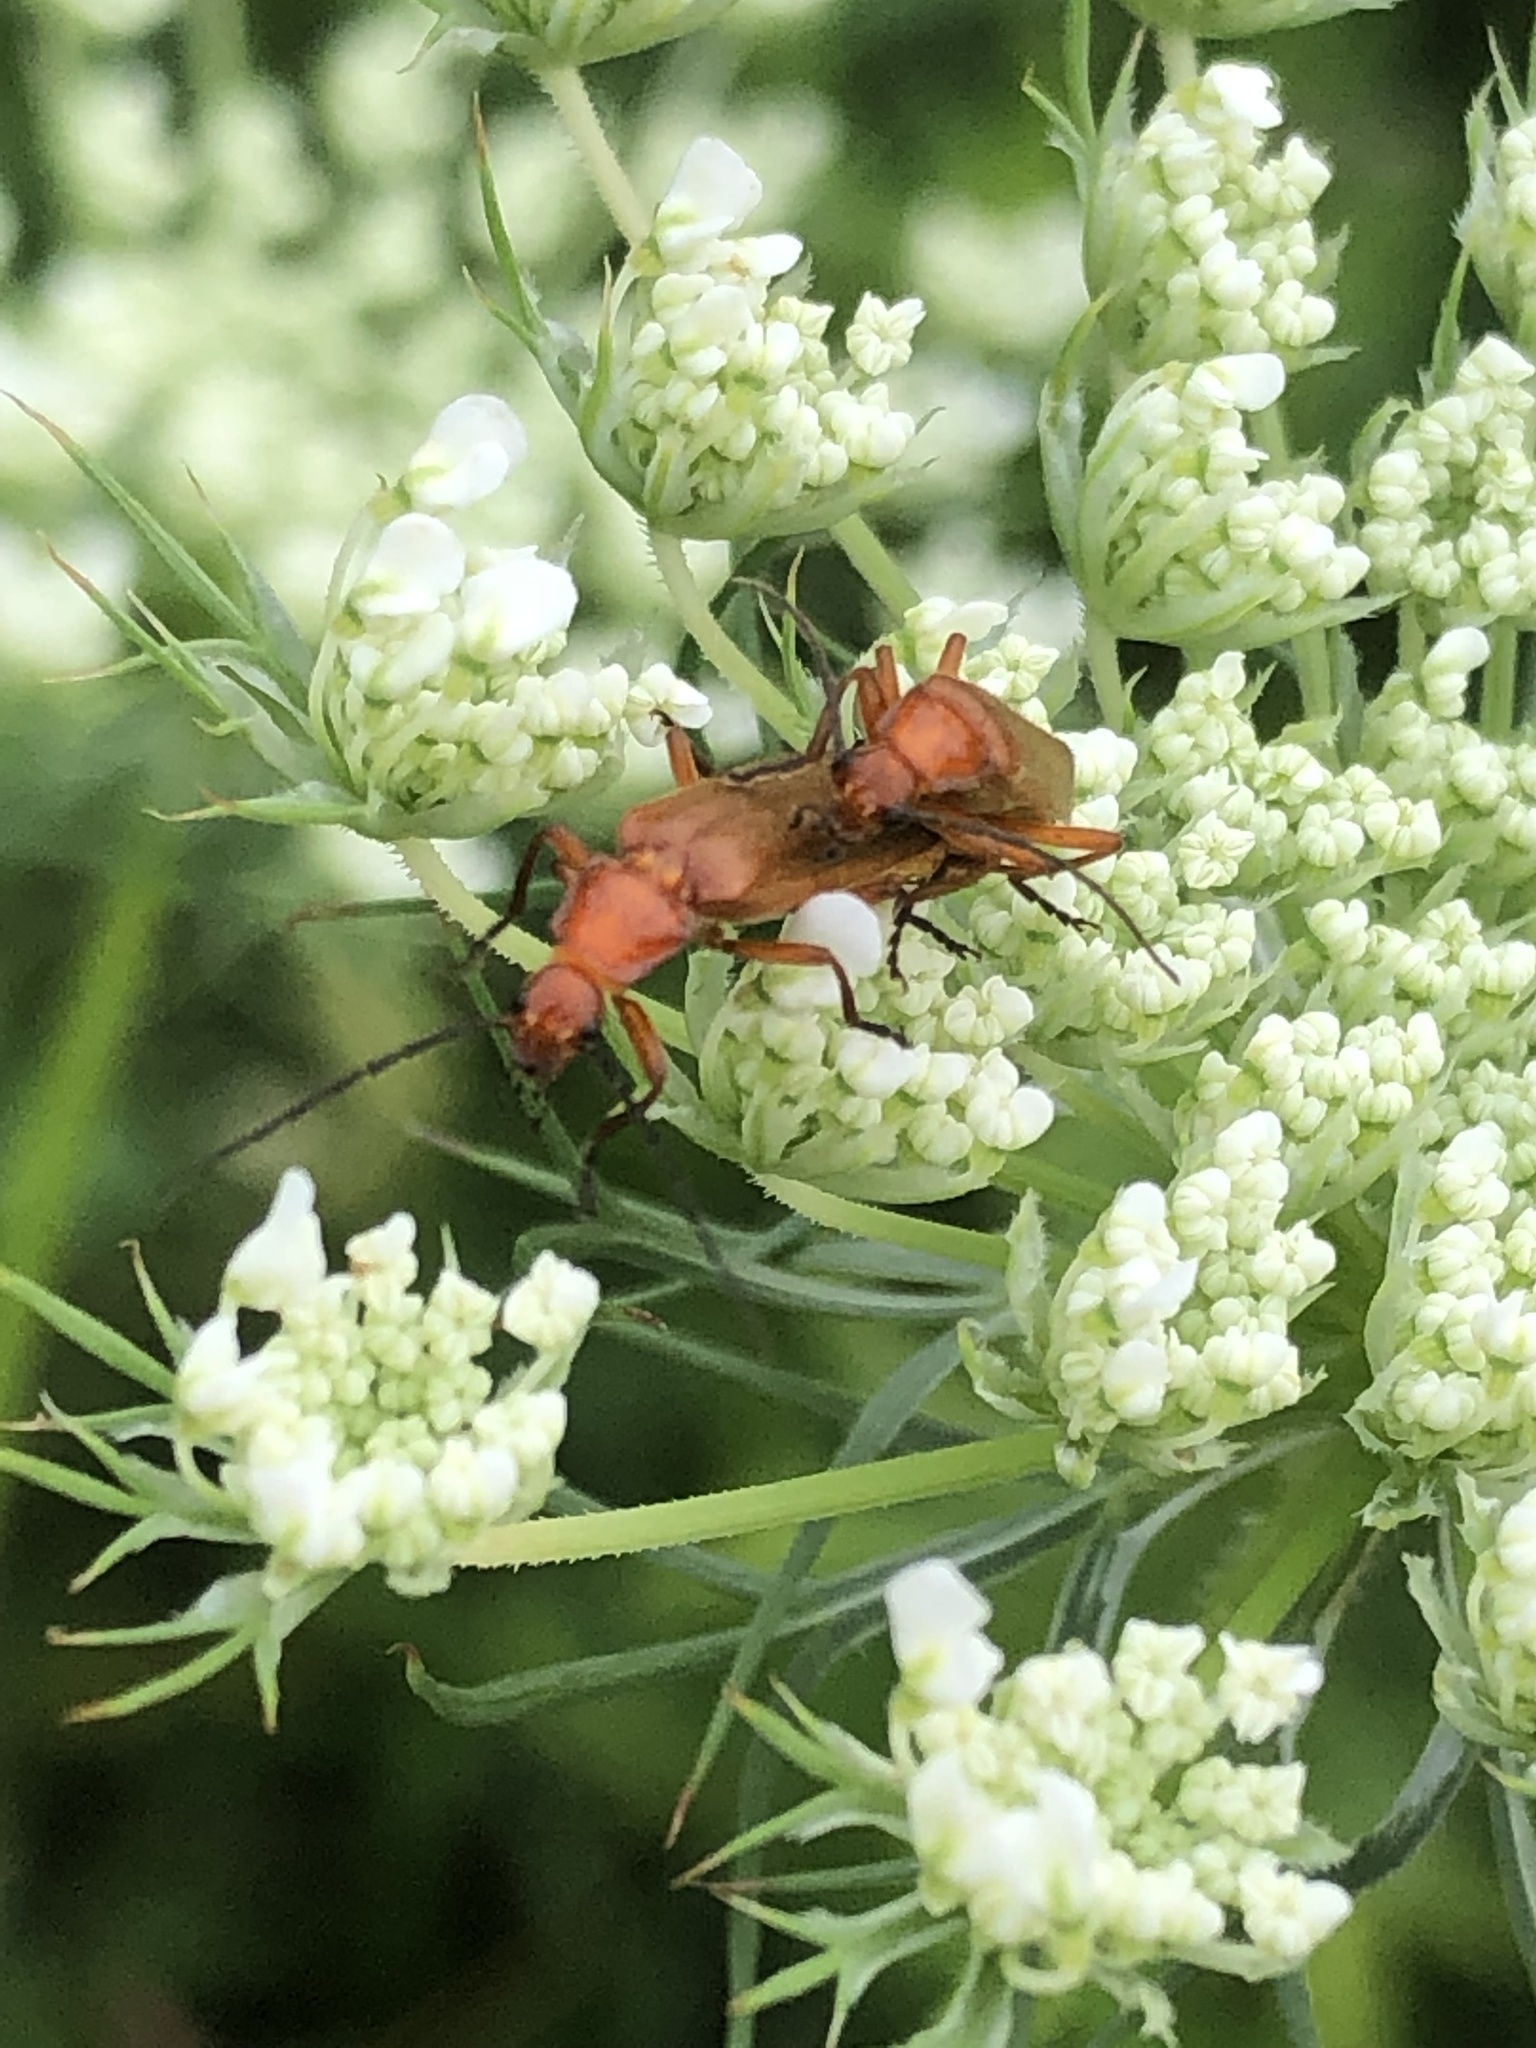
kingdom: Animalia
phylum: Arthropoda
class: Insecta
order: Coleoptera
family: Cantharidae
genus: Rhagonycha
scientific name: Rhagonycha fulva
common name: Common red soldier beetle
